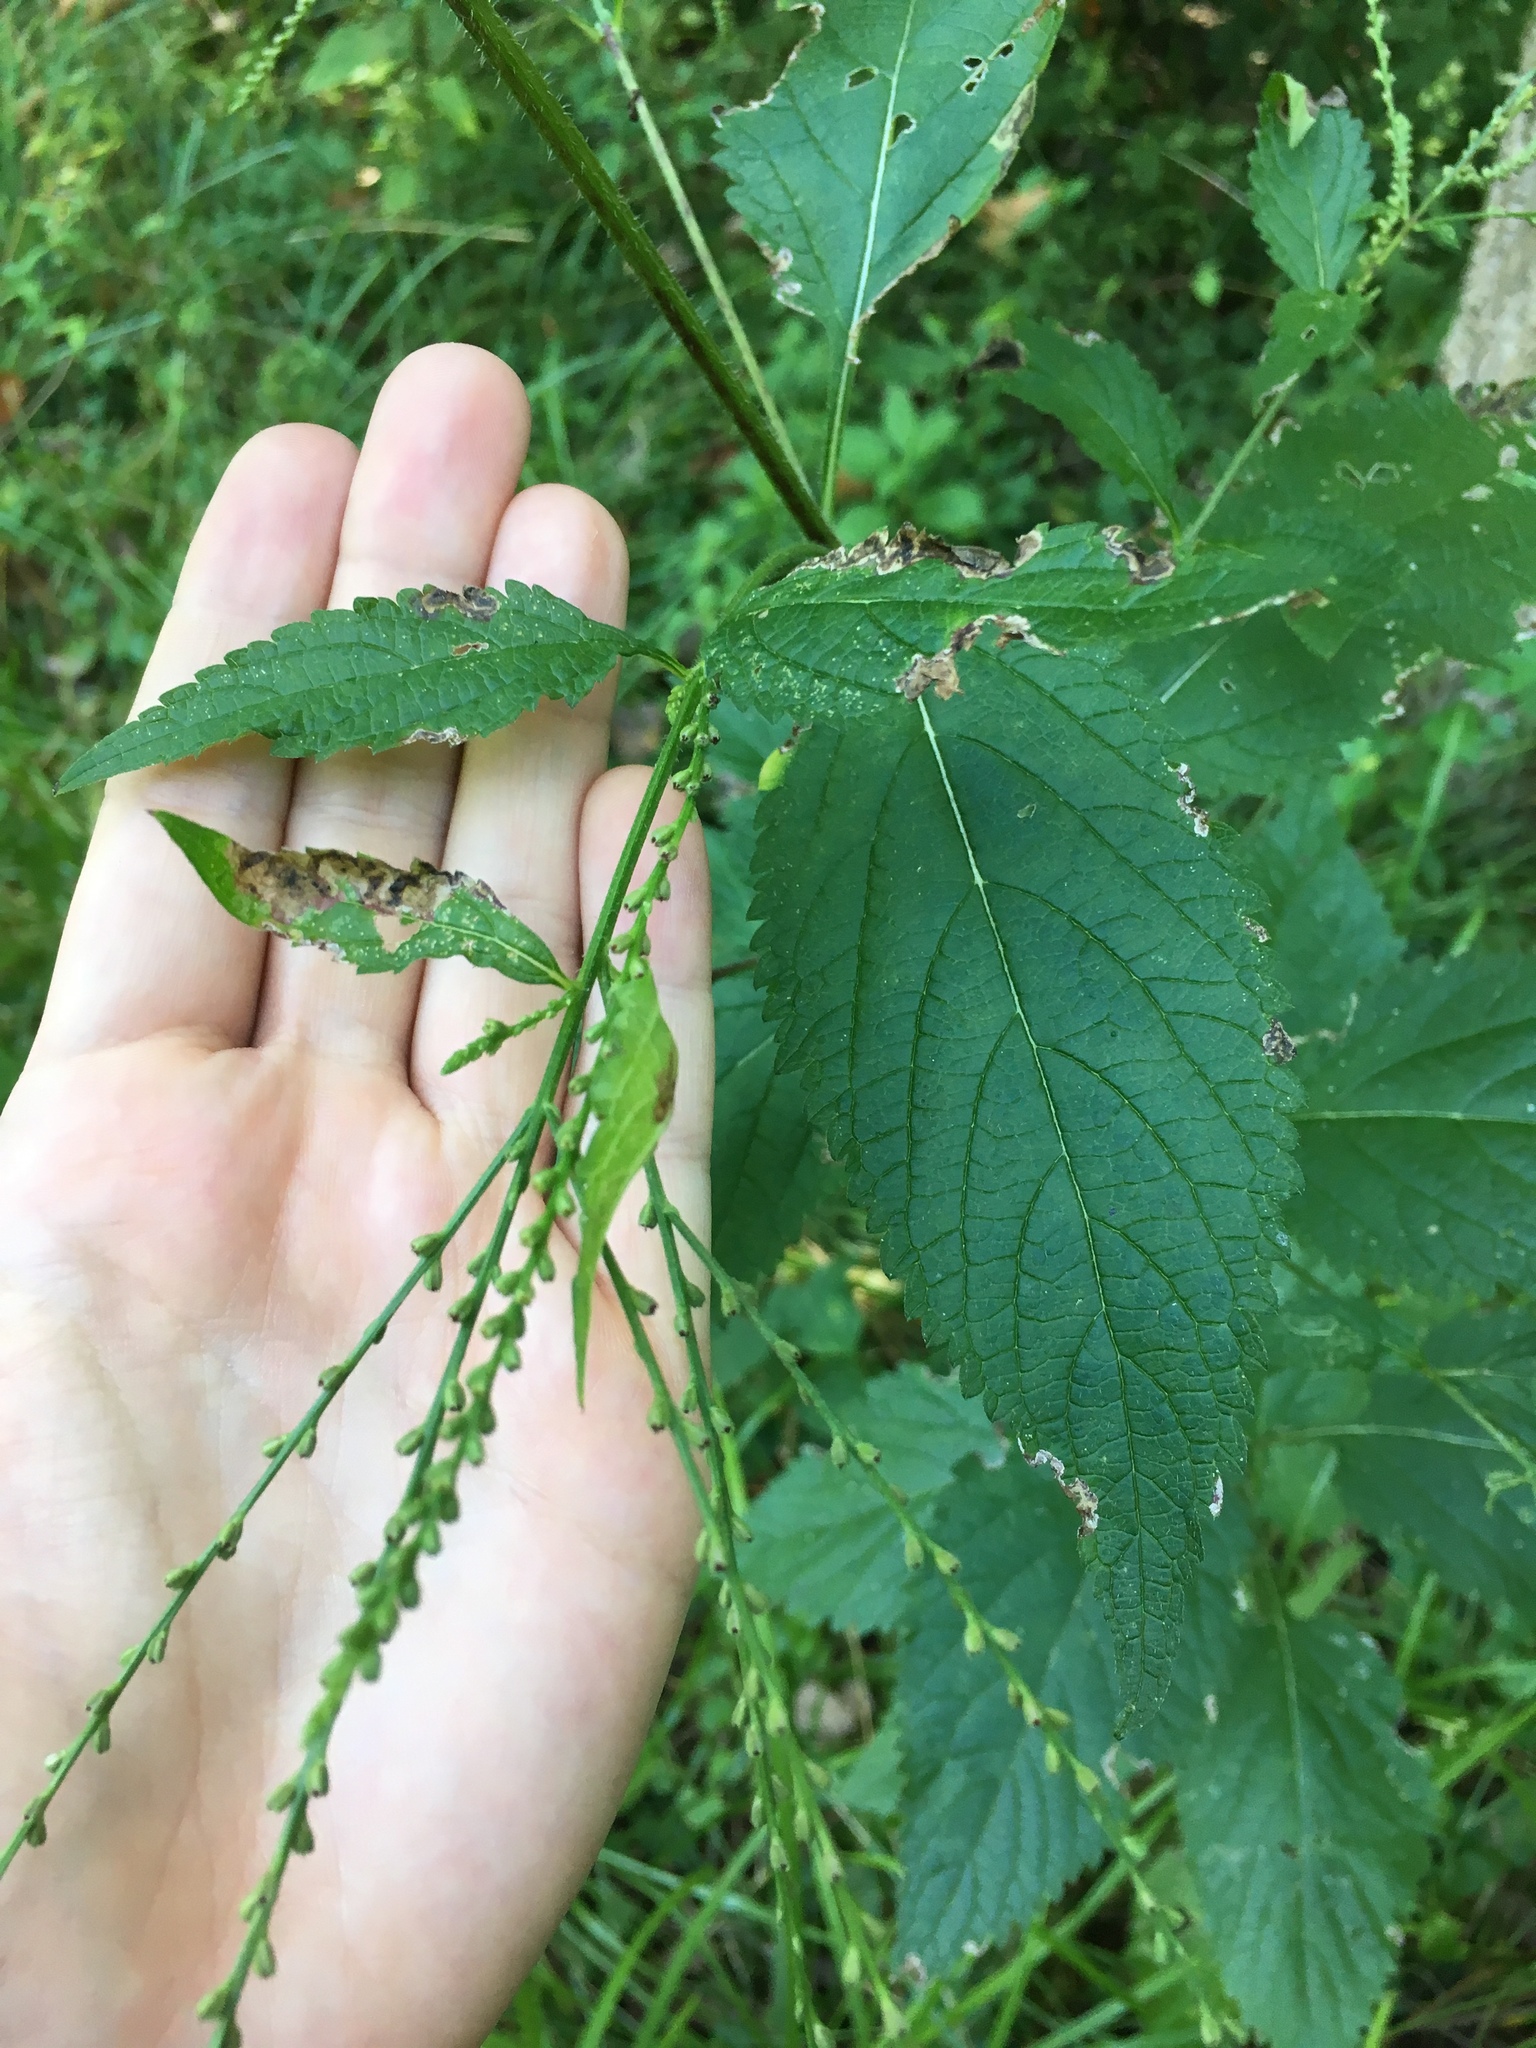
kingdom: Plantae
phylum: Tracheophyta
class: Magnoliopsida
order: Lamiales
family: Verbenaceae
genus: Verbena
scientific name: Verbena urticifolia
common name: Nettle-leaved vervain
